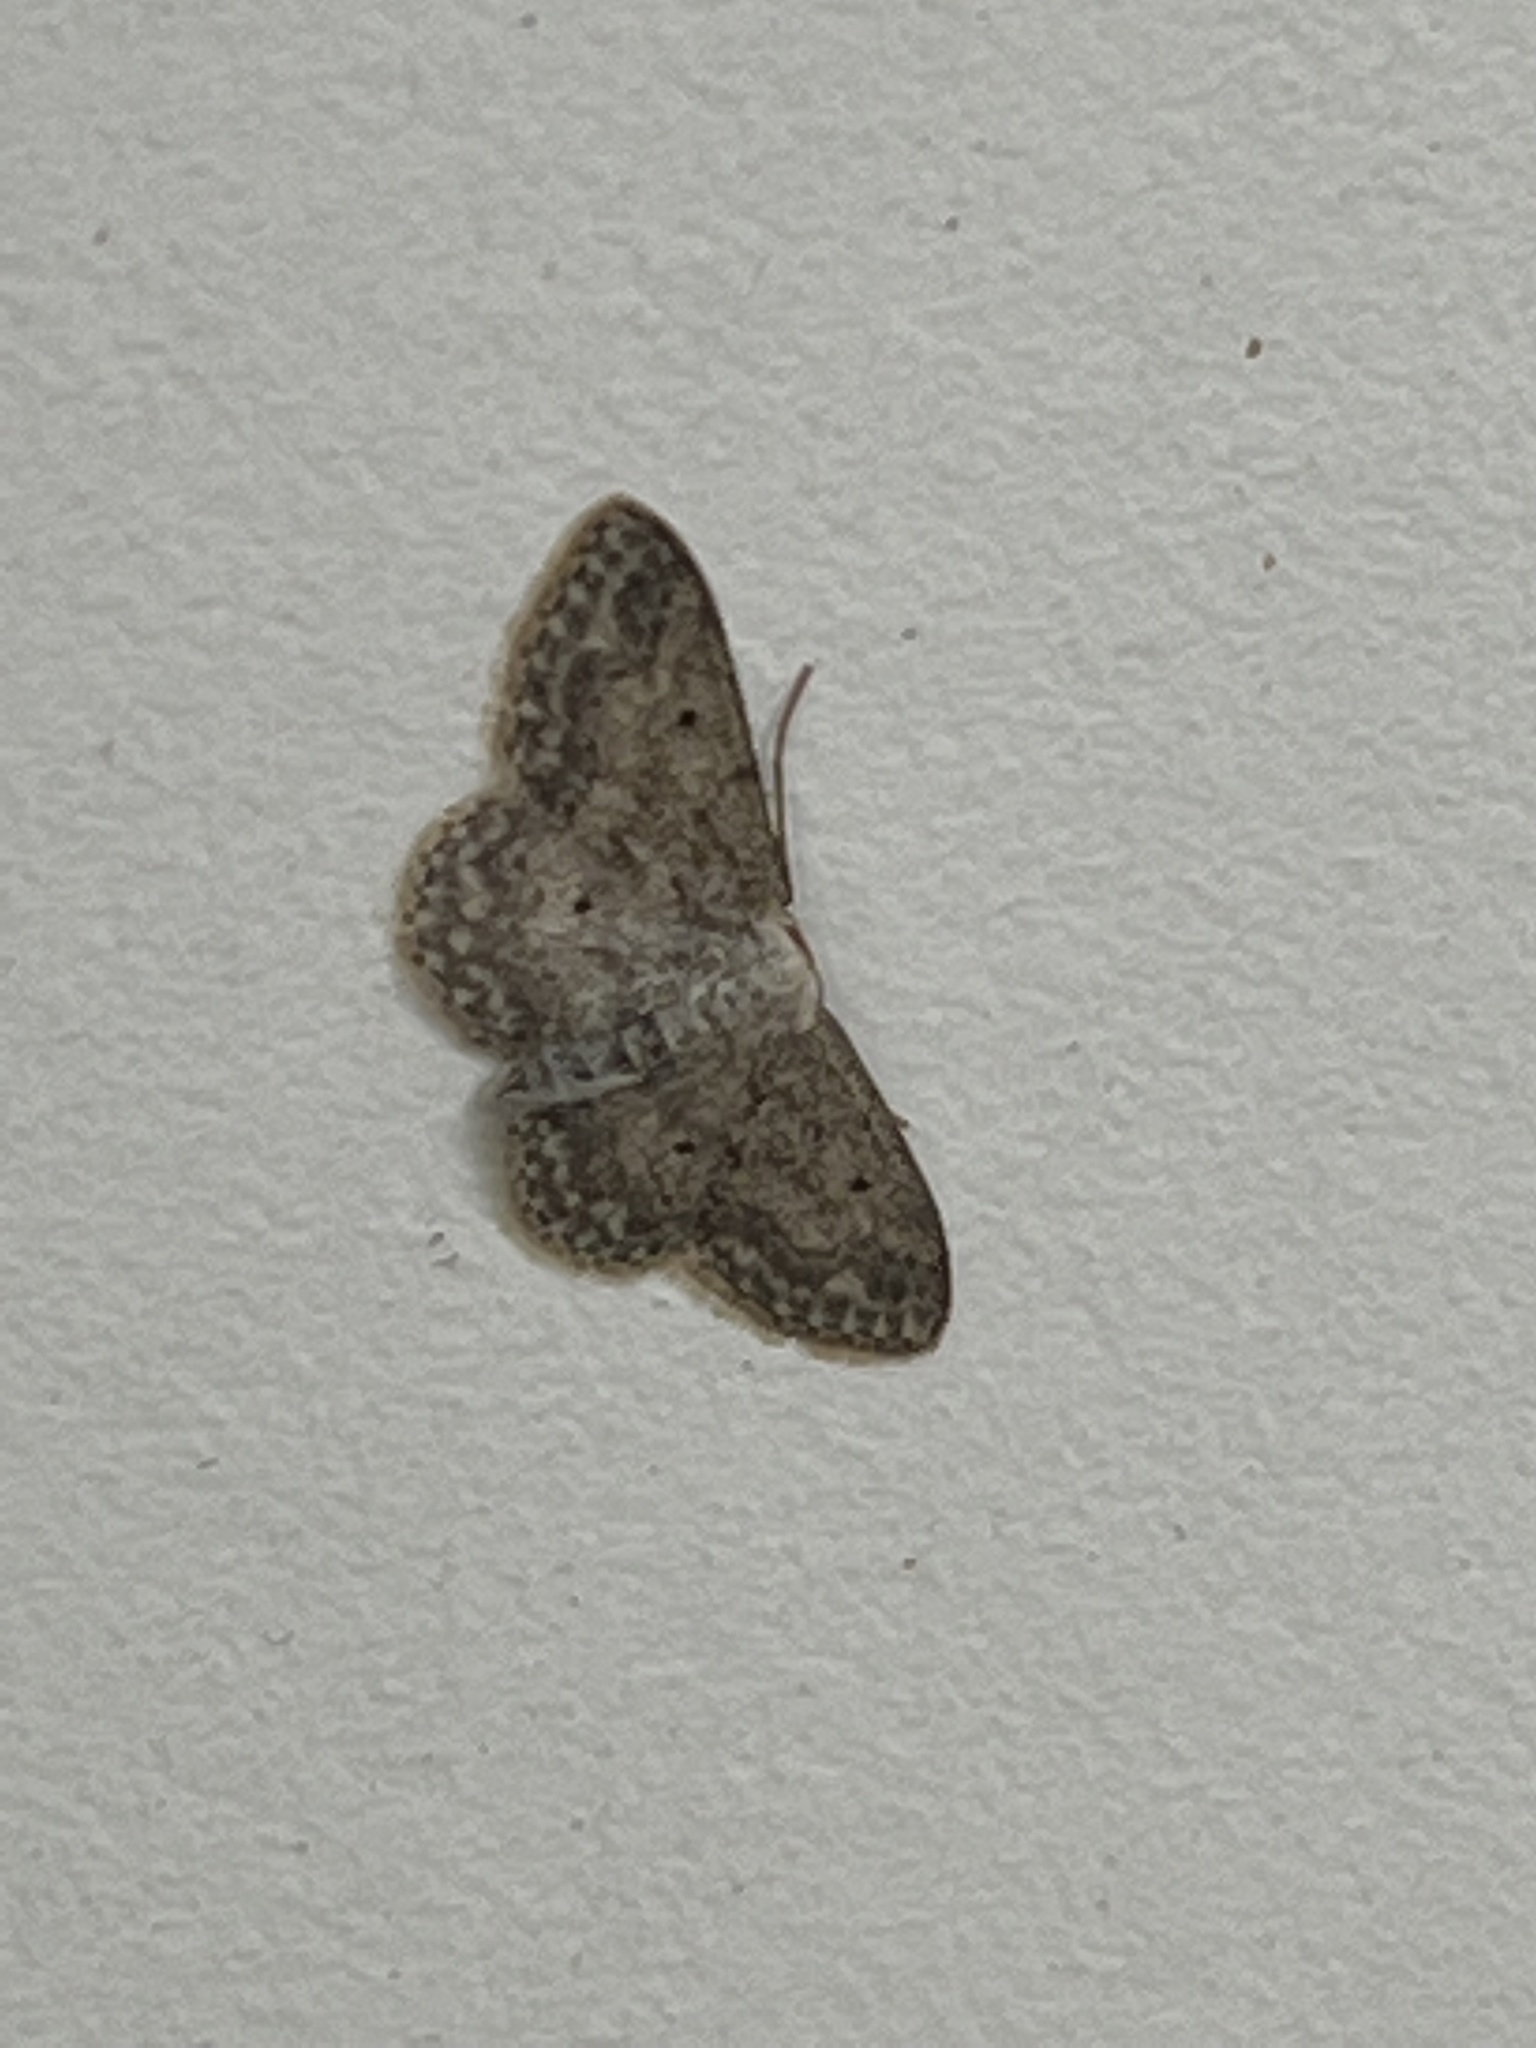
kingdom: Animalia
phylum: Arthropoda
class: Insecta
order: Lepidoptera
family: Geometridae
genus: Idaea
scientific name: Idaea seriata
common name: Small dusty wave
